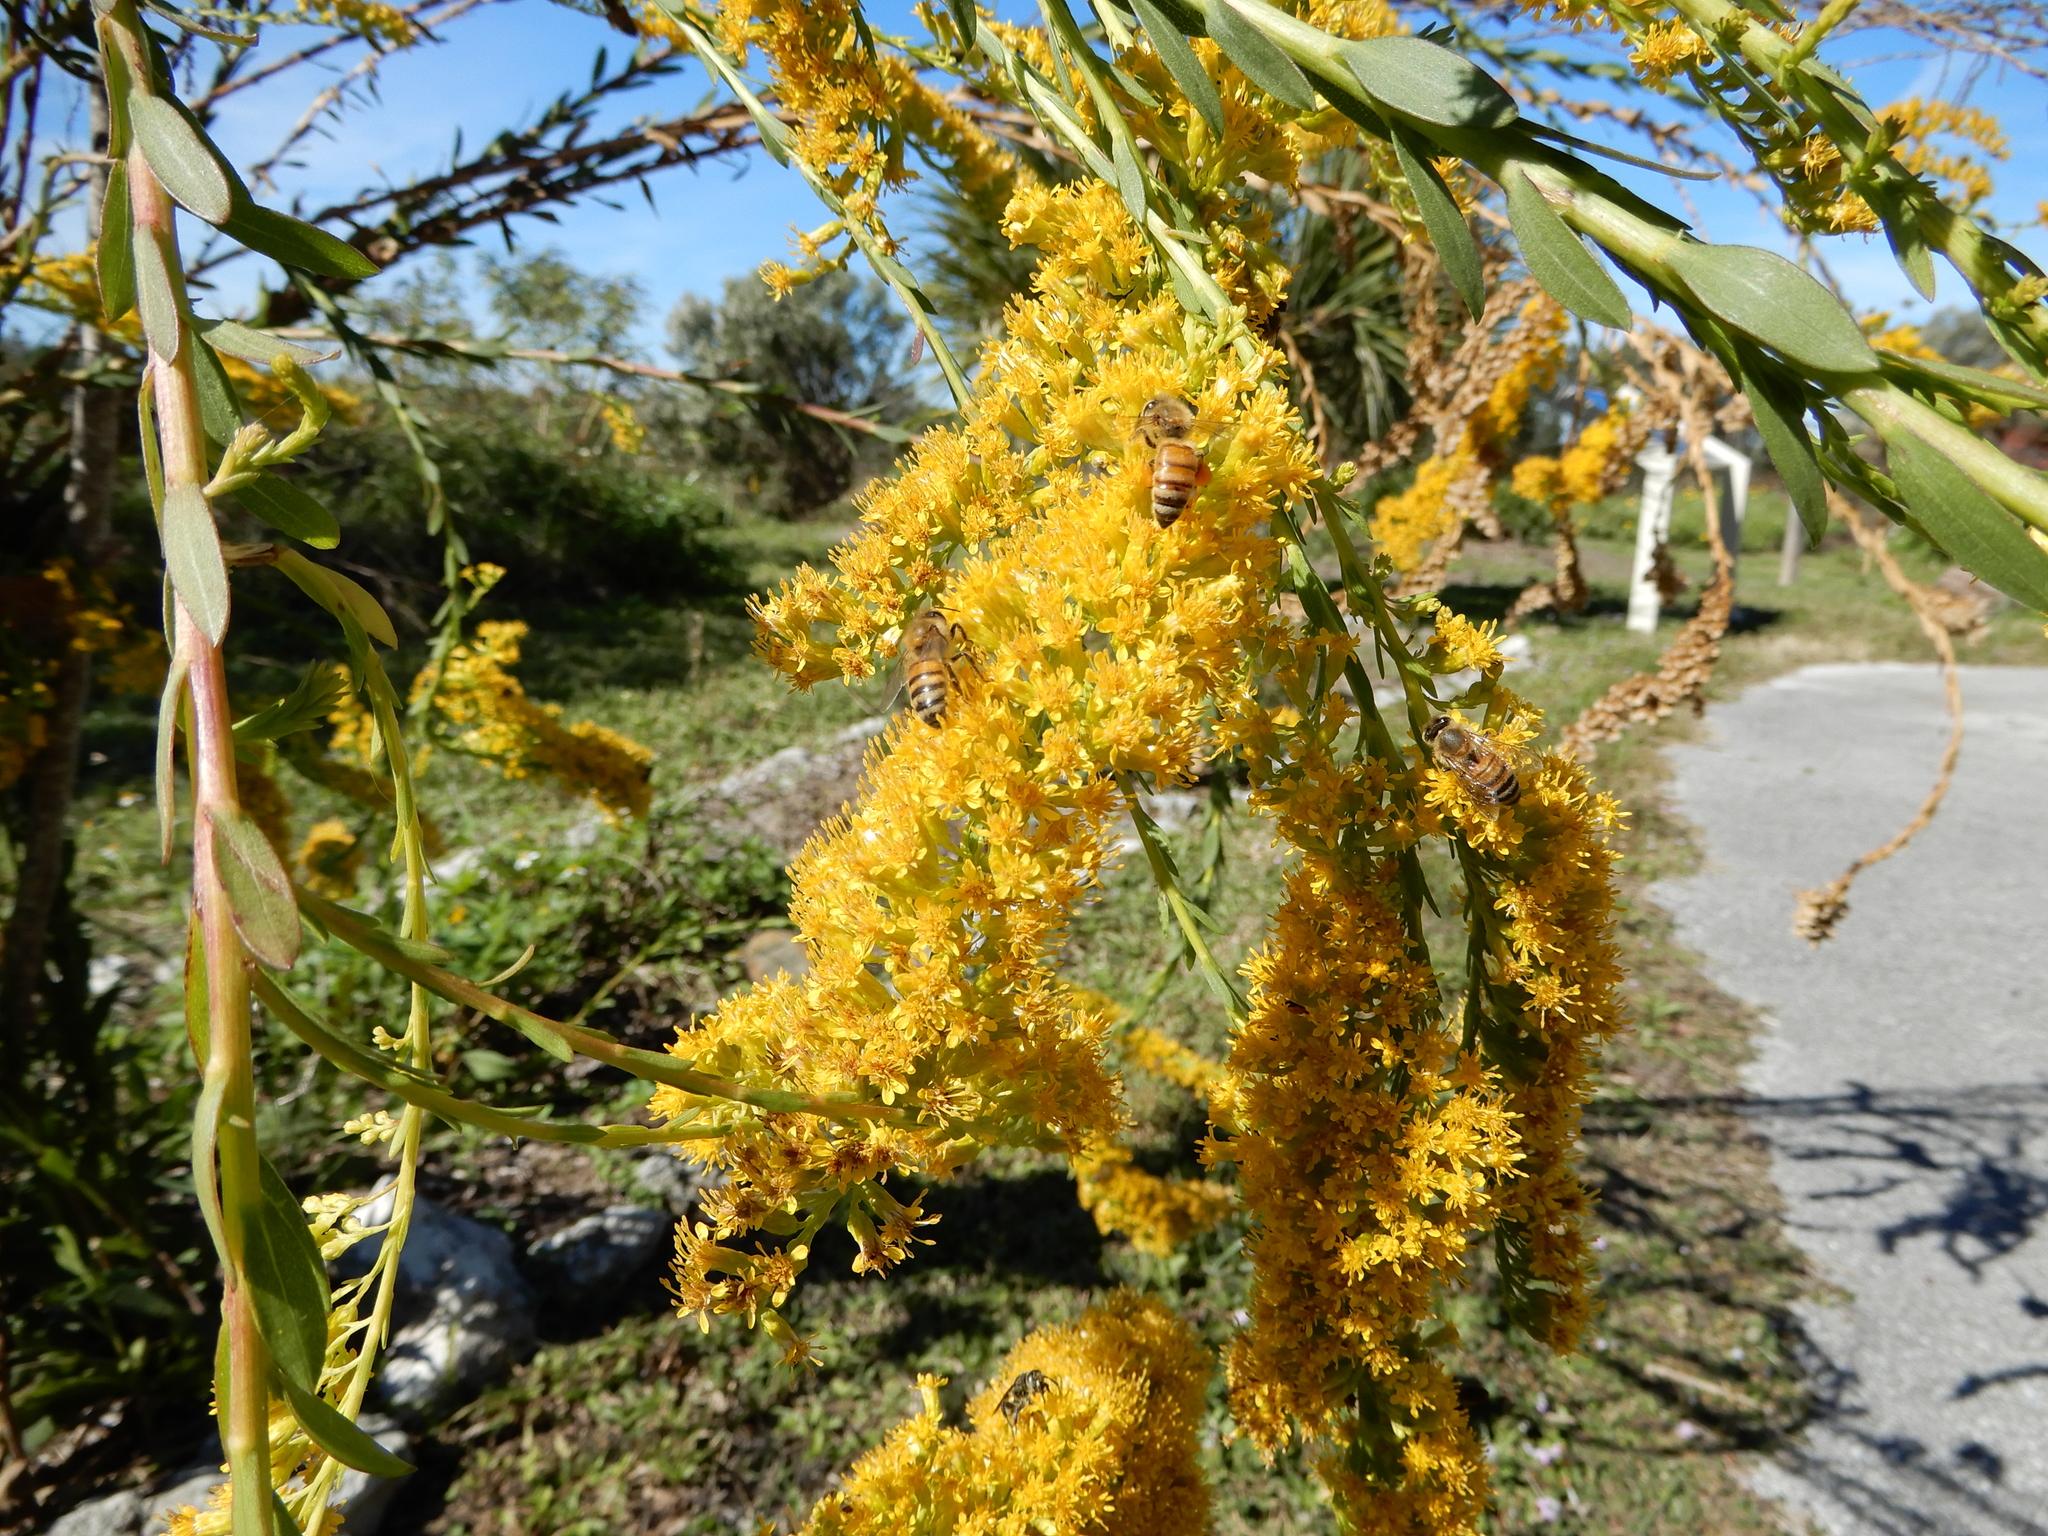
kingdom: Plantae
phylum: Tracheophyta
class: Magnoliopsida
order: Asterales
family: Asteraceae
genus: Solidago
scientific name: Solidago mexicana
